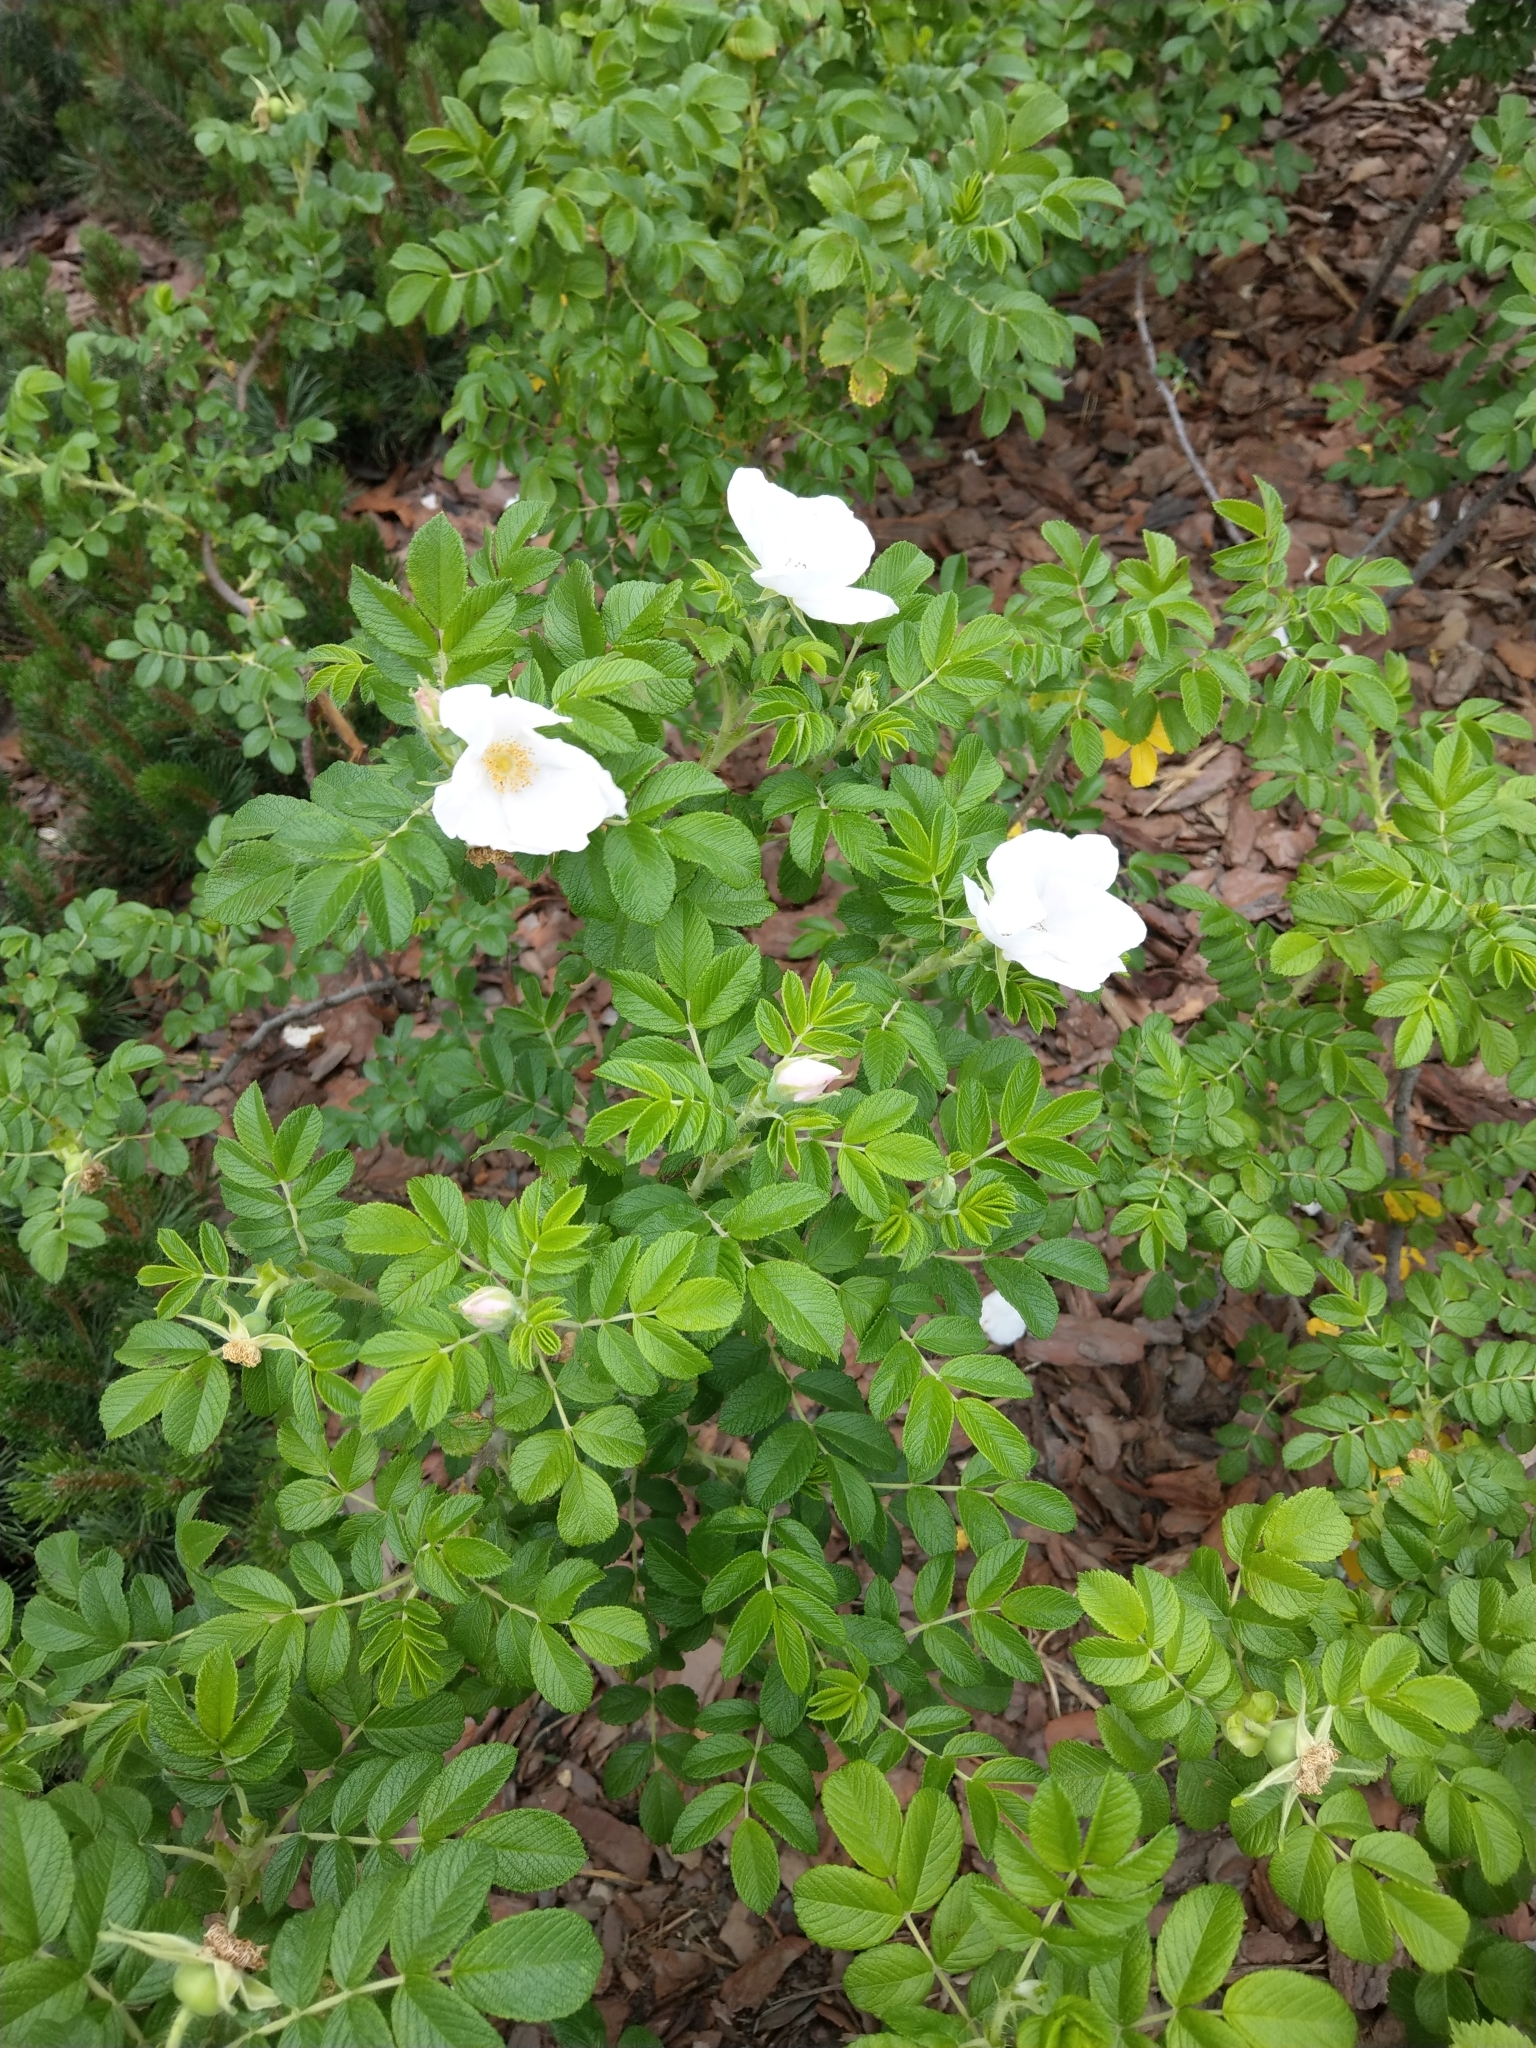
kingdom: Plantae
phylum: Tracheophyta
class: Magnoliopsida
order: Rosales
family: Rosaceae
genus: Rosa
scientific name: Rosa rugosa
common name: Japanese rose
